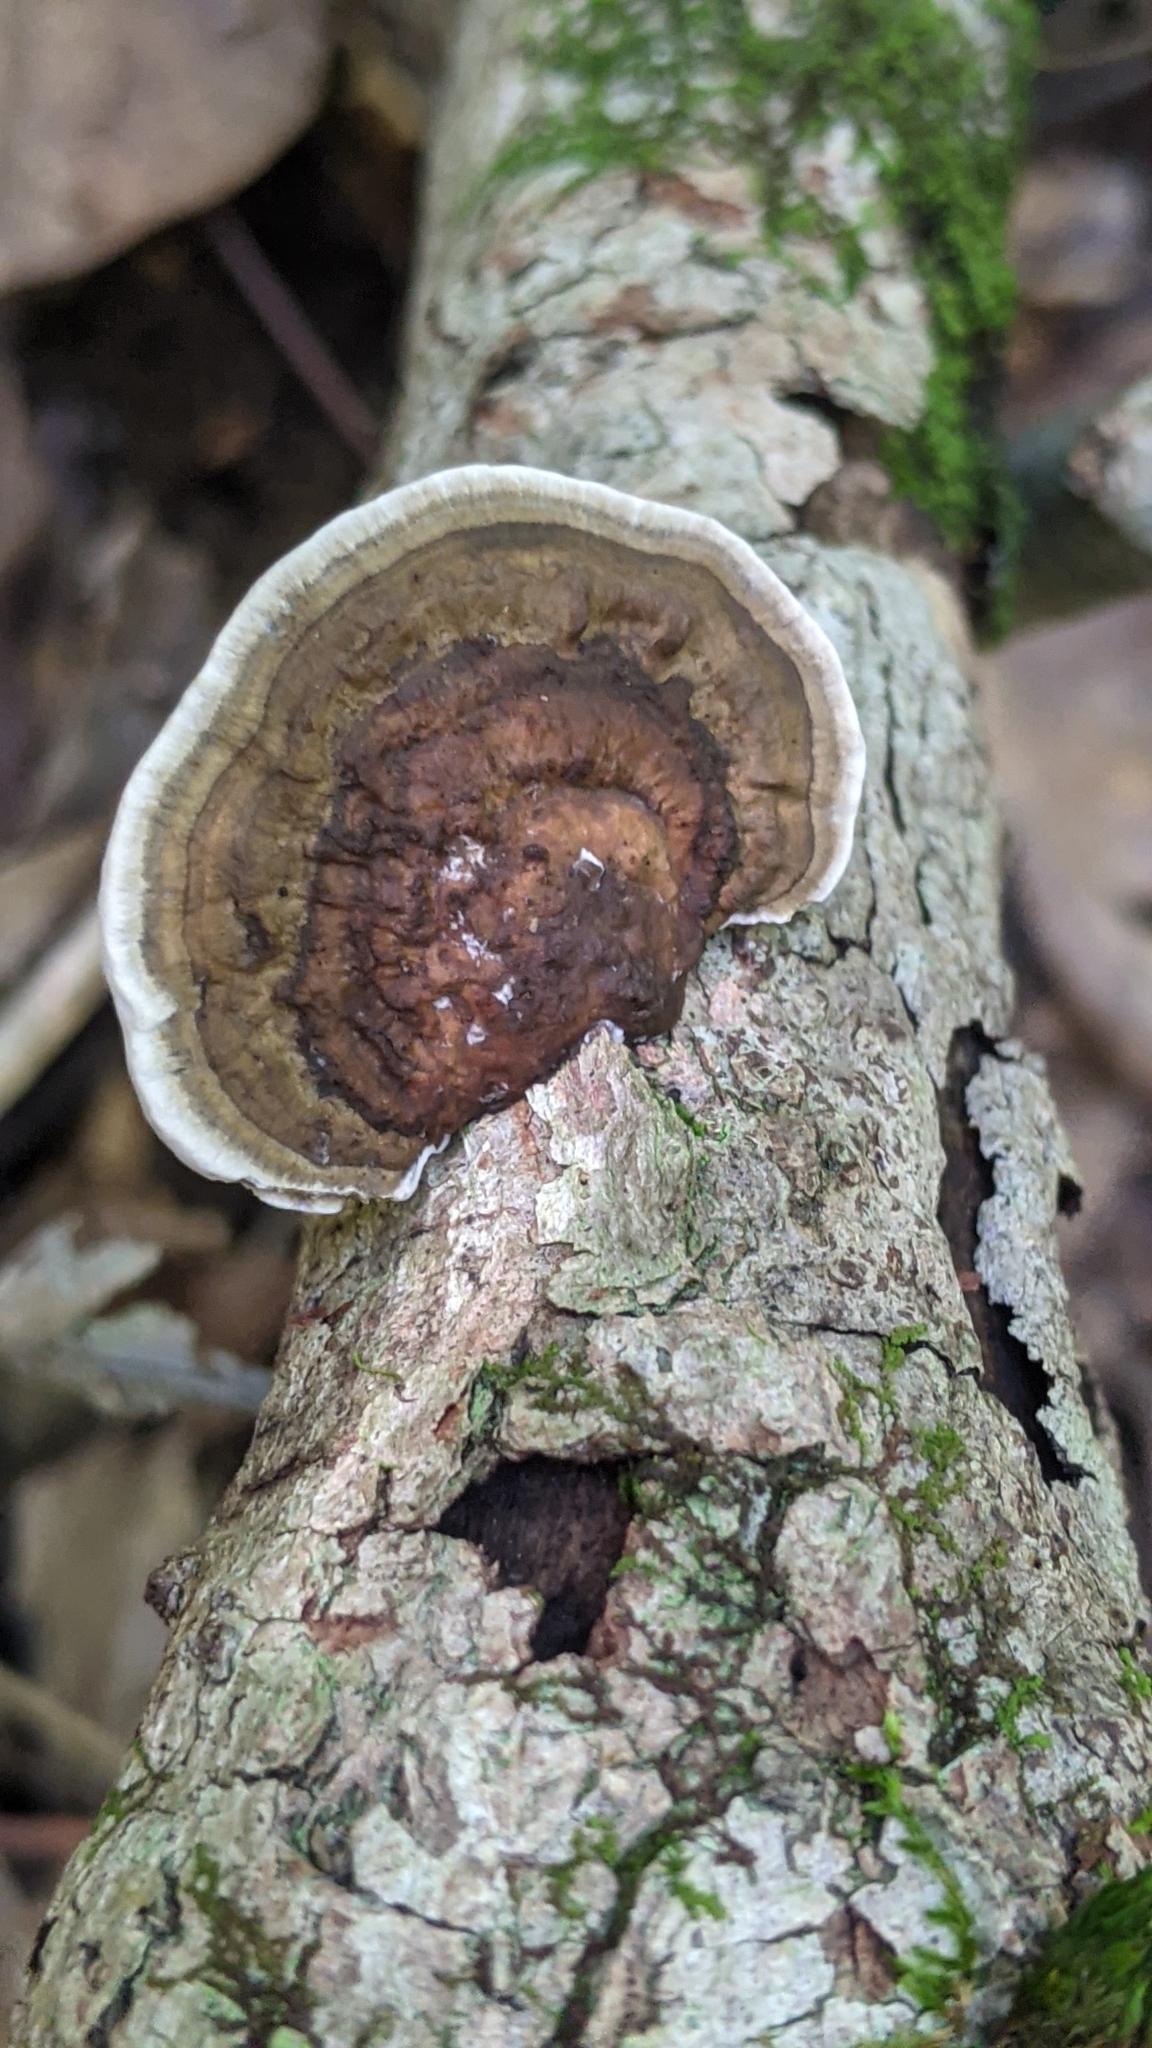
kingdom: Fungi
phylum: Basidiomycota
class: Agaricomycetes
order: Polyporales
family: Polyporaceae
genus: Daedaleopsis
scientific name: Daedaleopsis confragosa
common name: Blushing bracket
